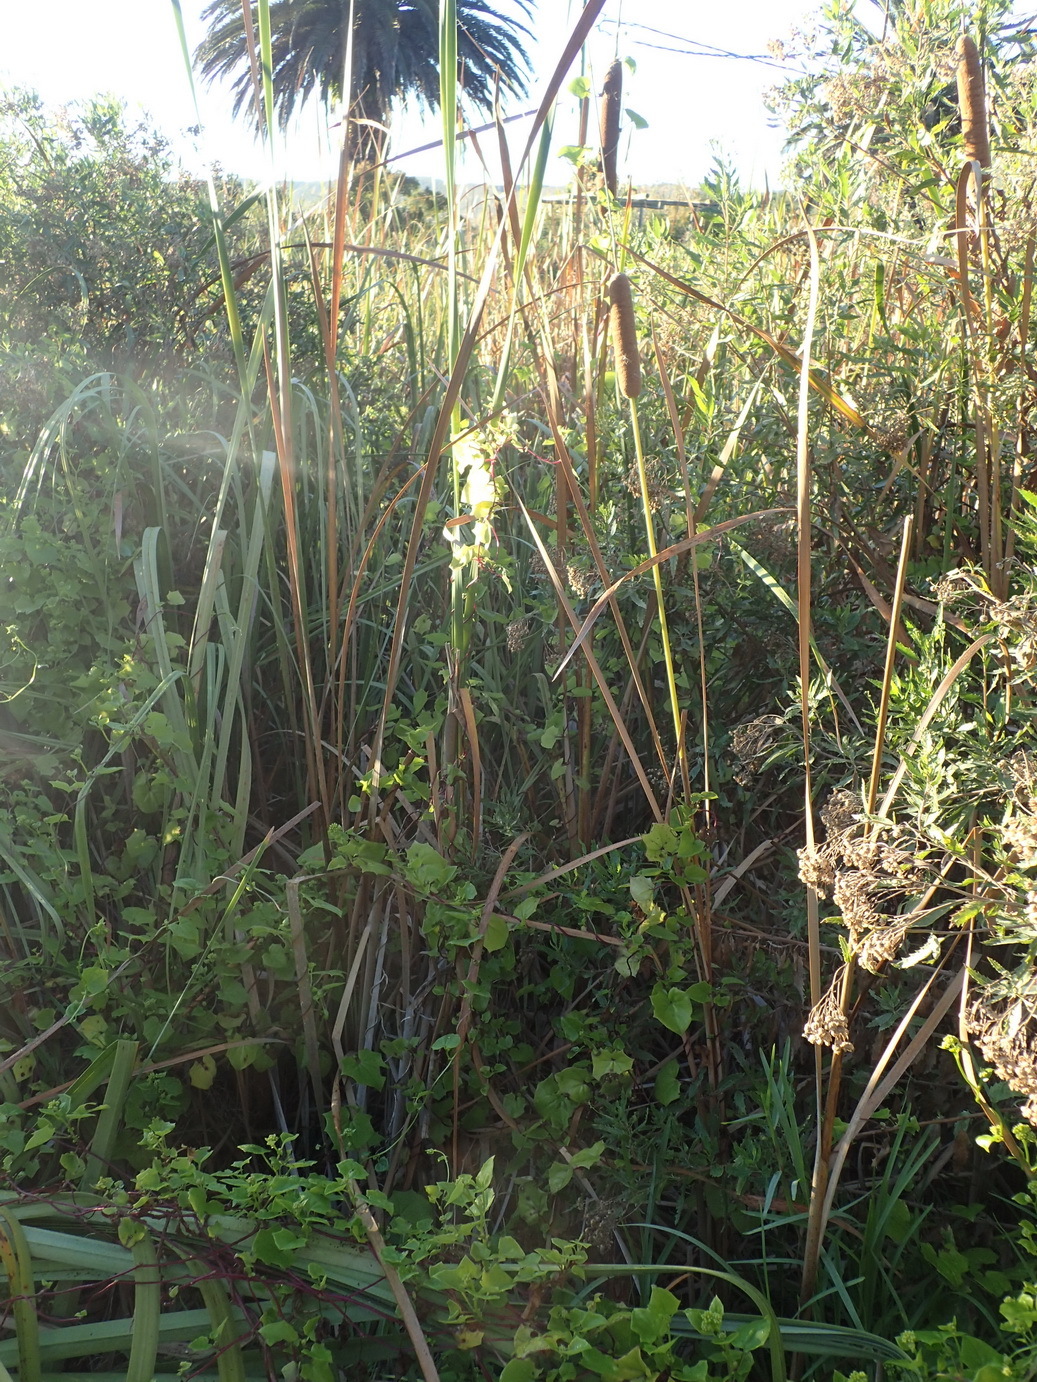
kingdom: Plantae
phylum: Tracheophyta
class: Liliopsida
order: Poales
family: Typhaceae
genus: Typha
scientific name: Typha capensis
